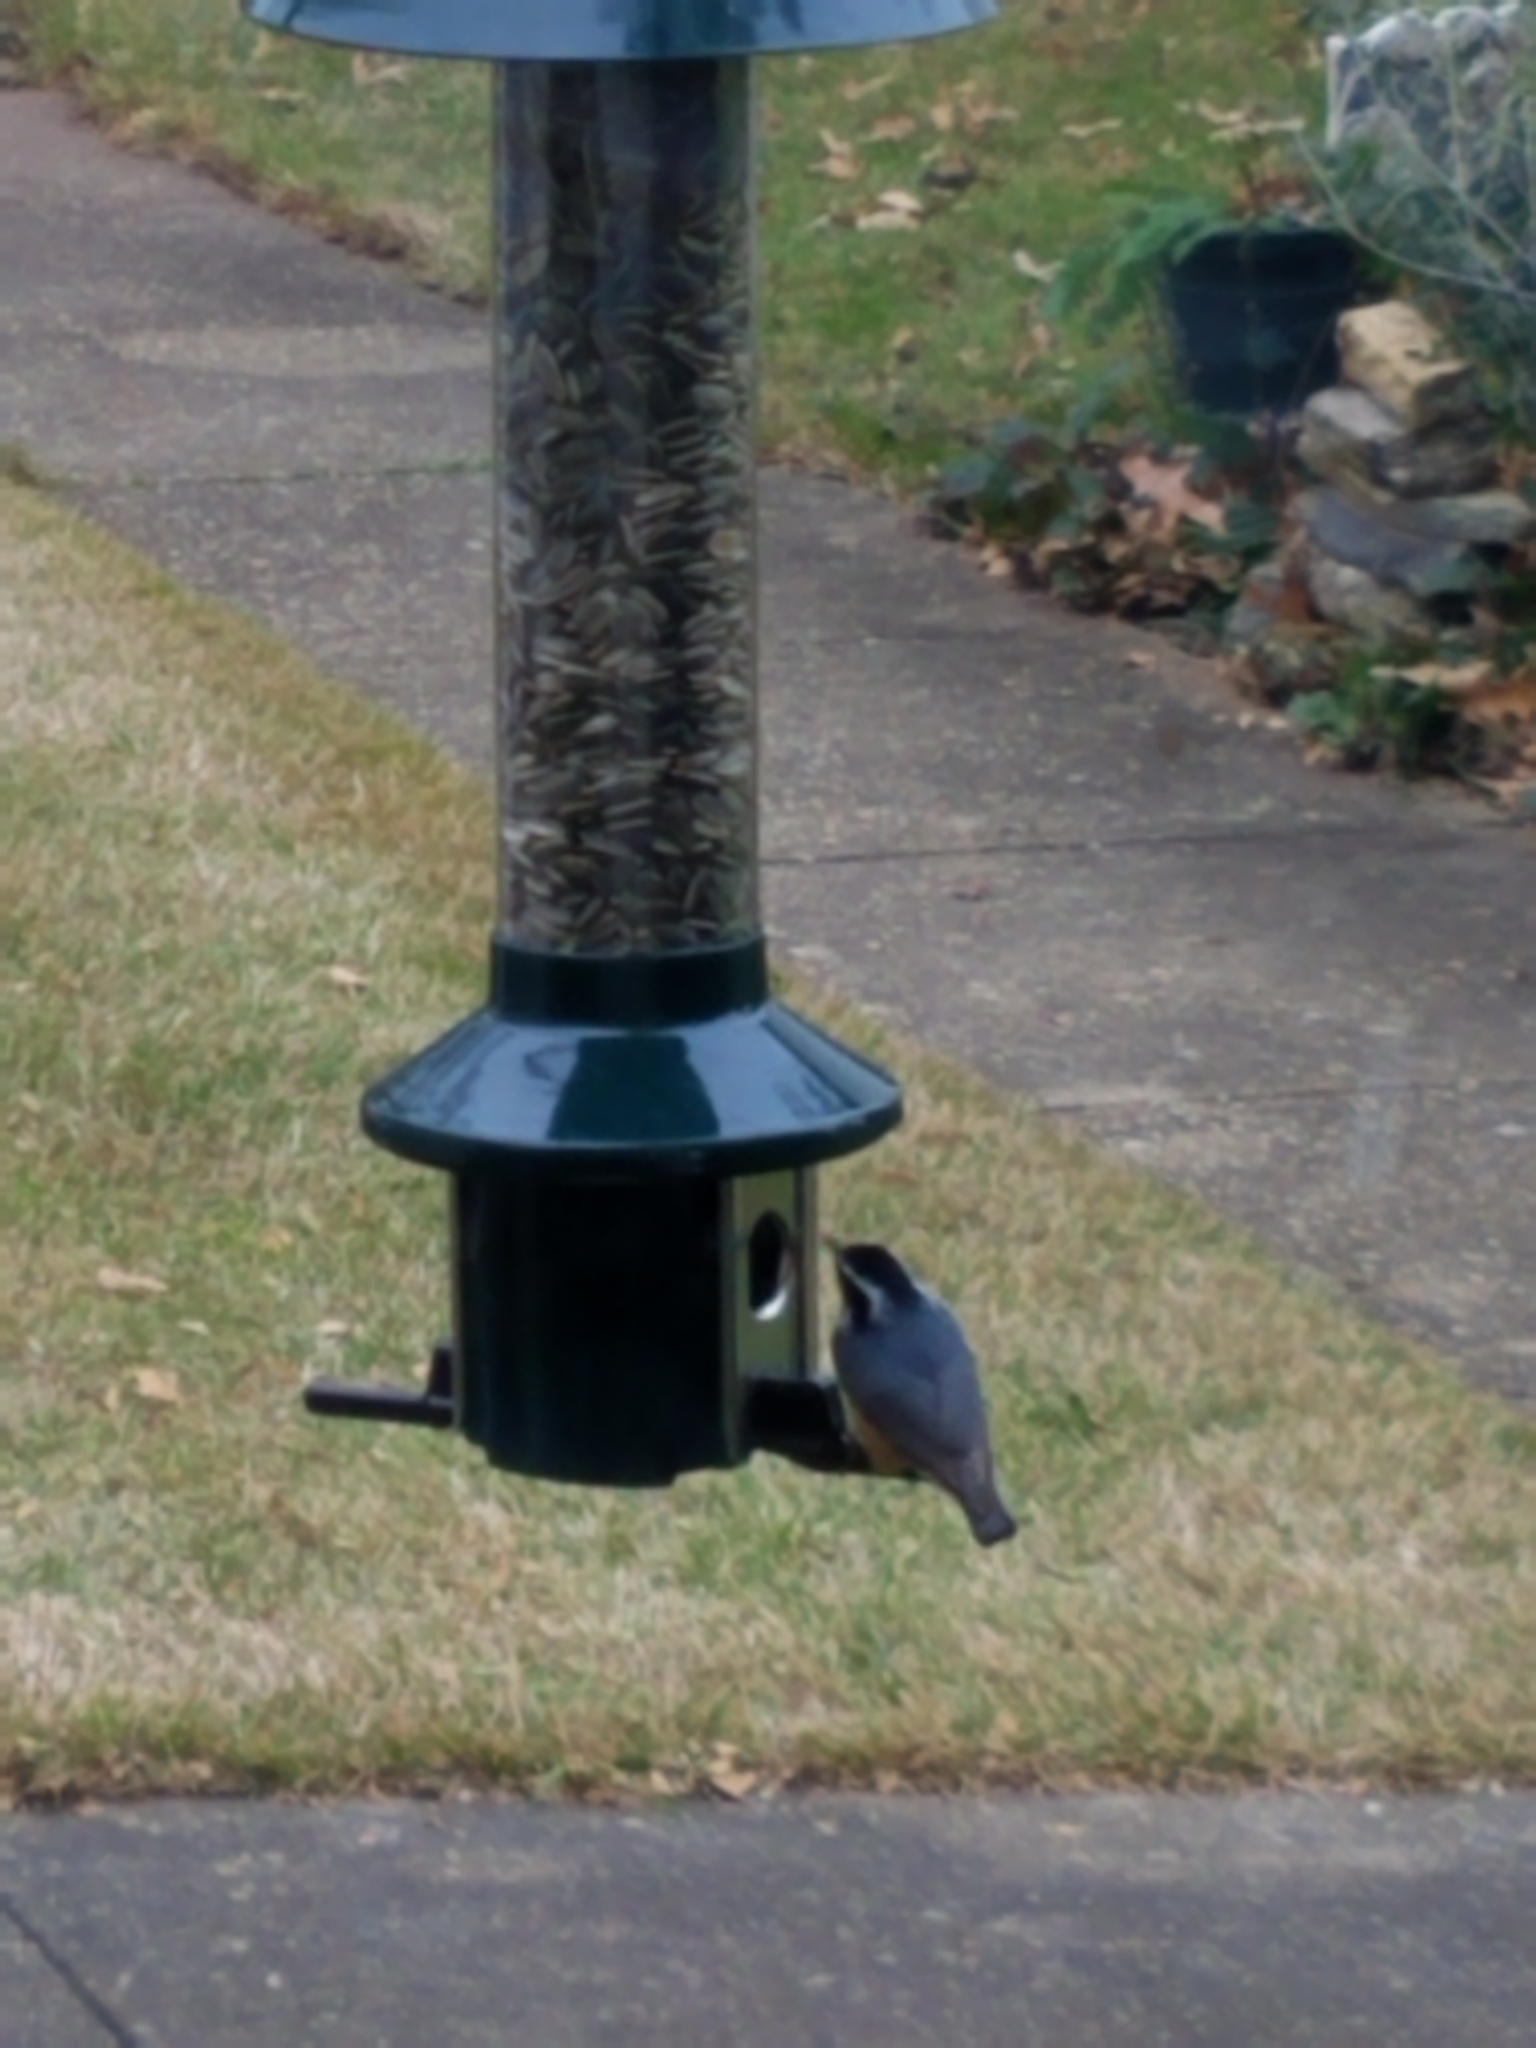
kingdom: Animalia
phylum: Chordata
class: Aves
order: Passeriformes
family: Sittidae
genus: Sitta
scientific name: Sitta canadensis
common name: Red-breasted nuthatch
